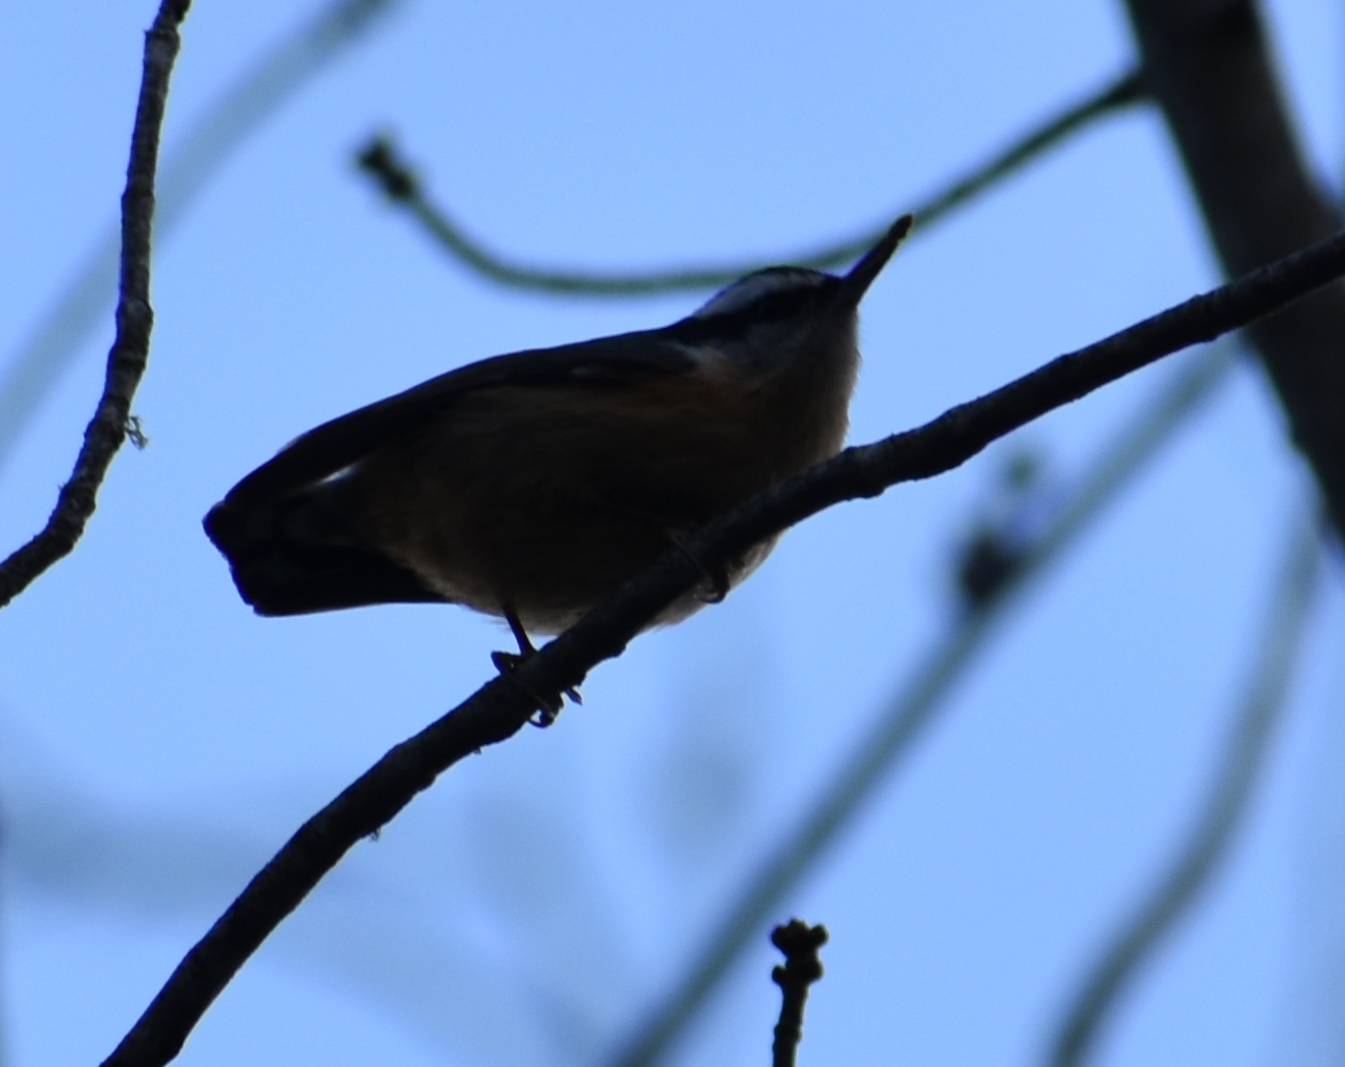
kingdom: Animalia
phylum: Chordata
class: Aves
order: Passeriformes
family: Sittidae
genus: Sitta
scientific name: Sitta canadensis
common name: Red-breasted nuthatch
